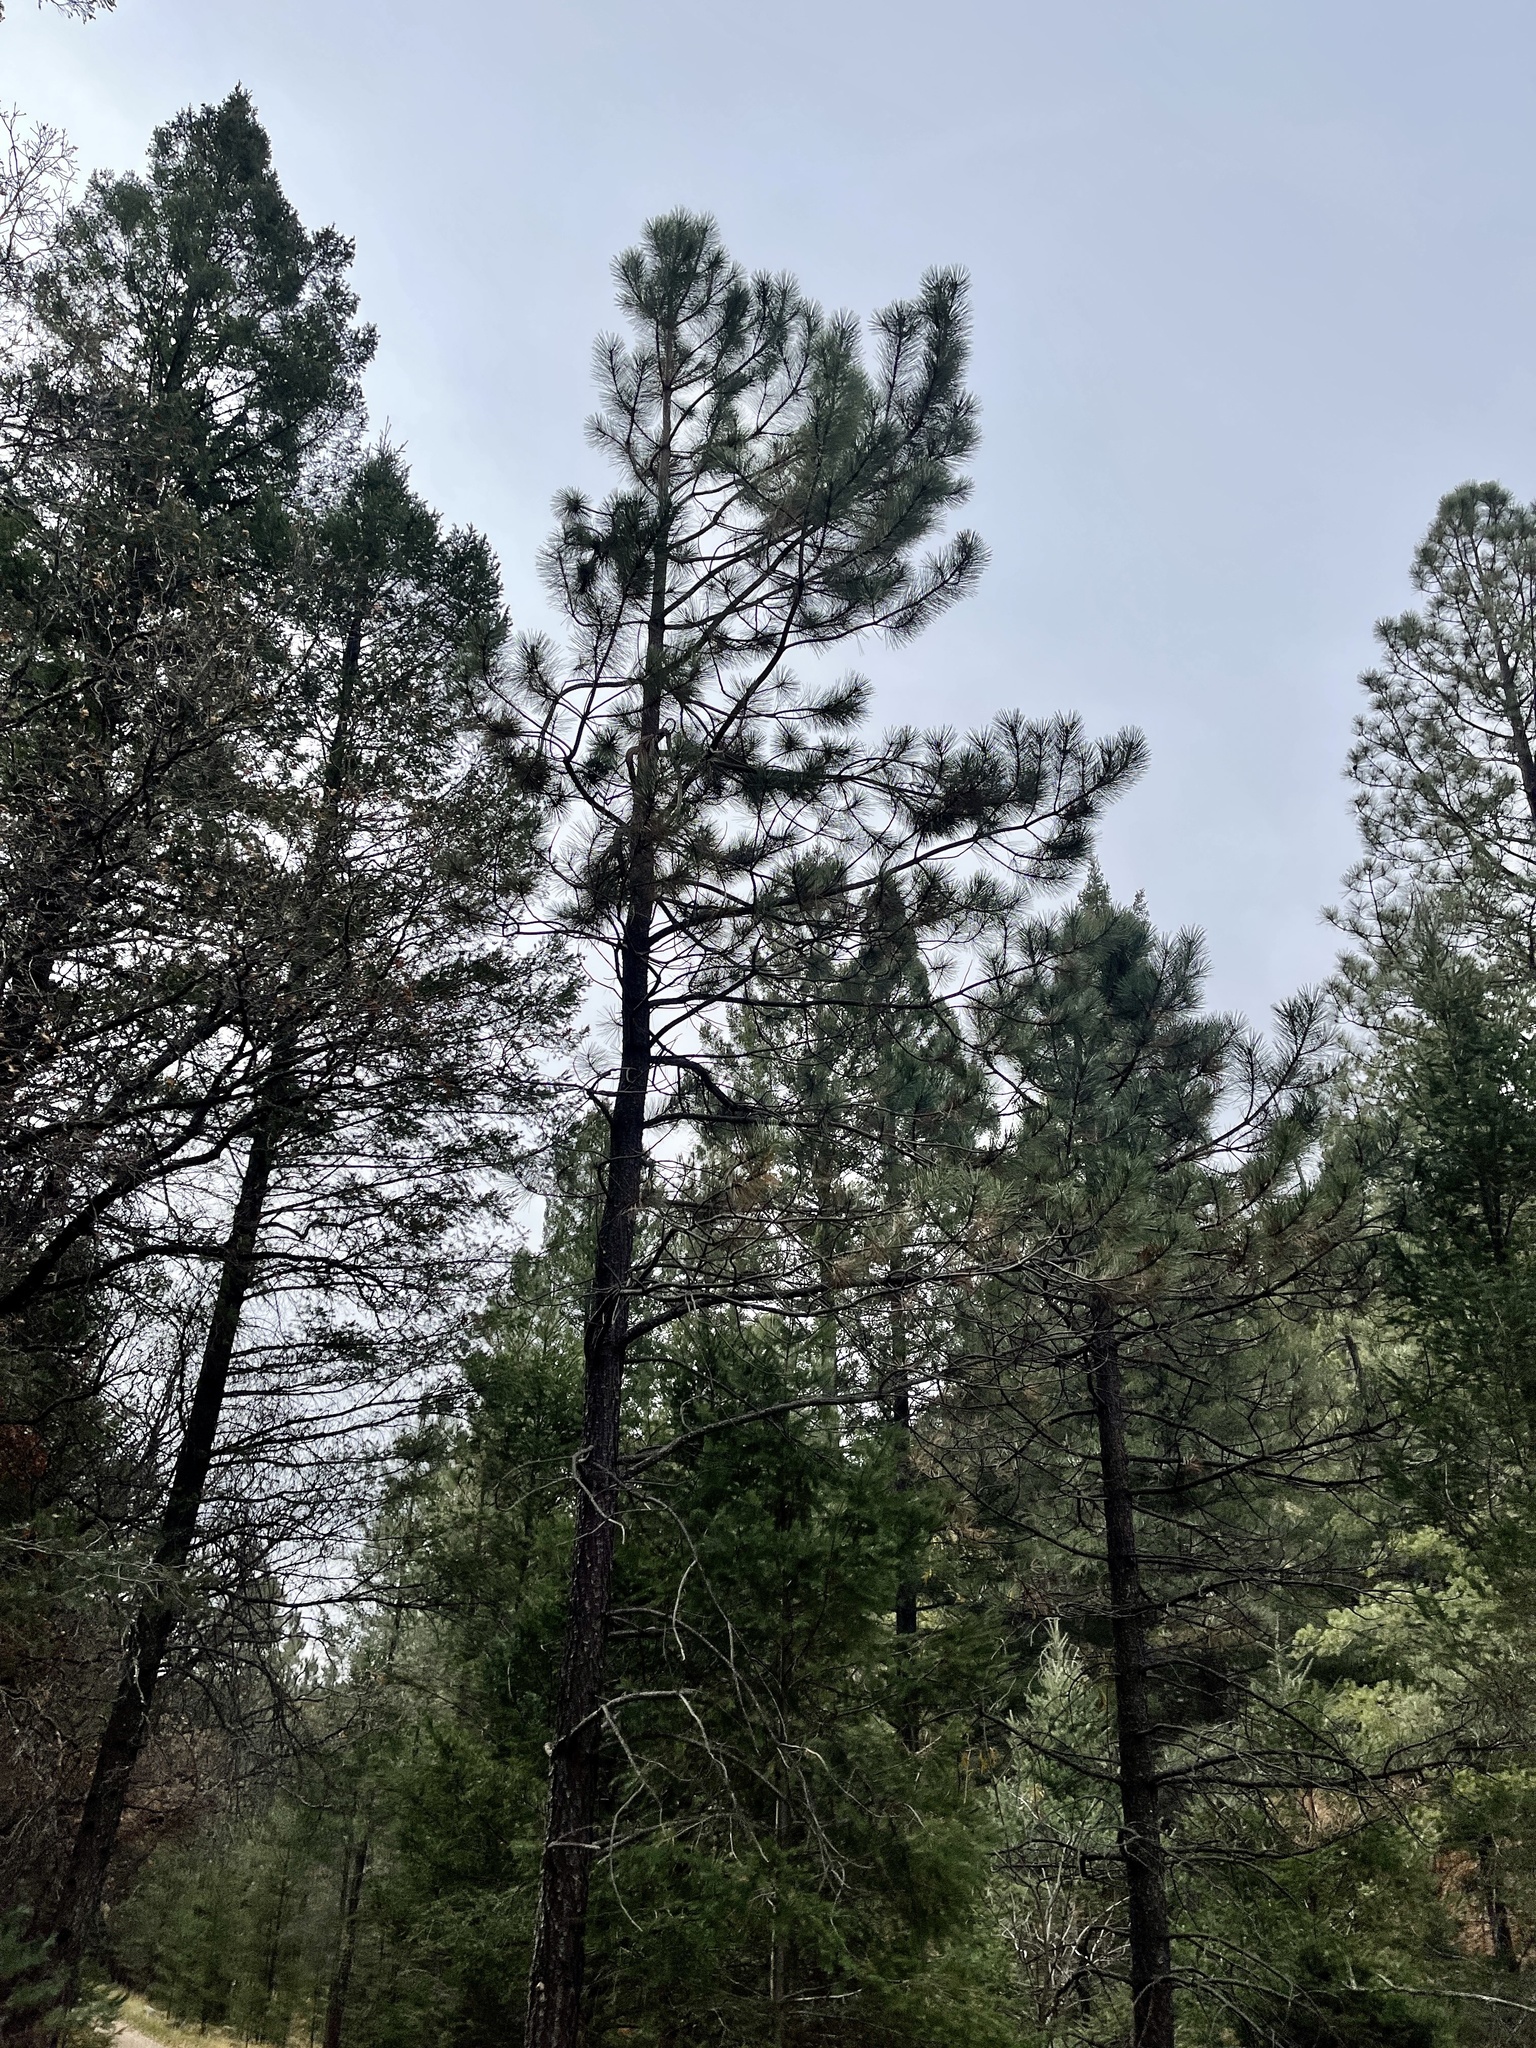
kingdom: Plantae
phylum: Tracheophyta
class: Pinopsida
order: Pinales
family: Pinaceae
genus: Pinus
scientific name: Pinus ponderosa
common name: Western yellow-pine
